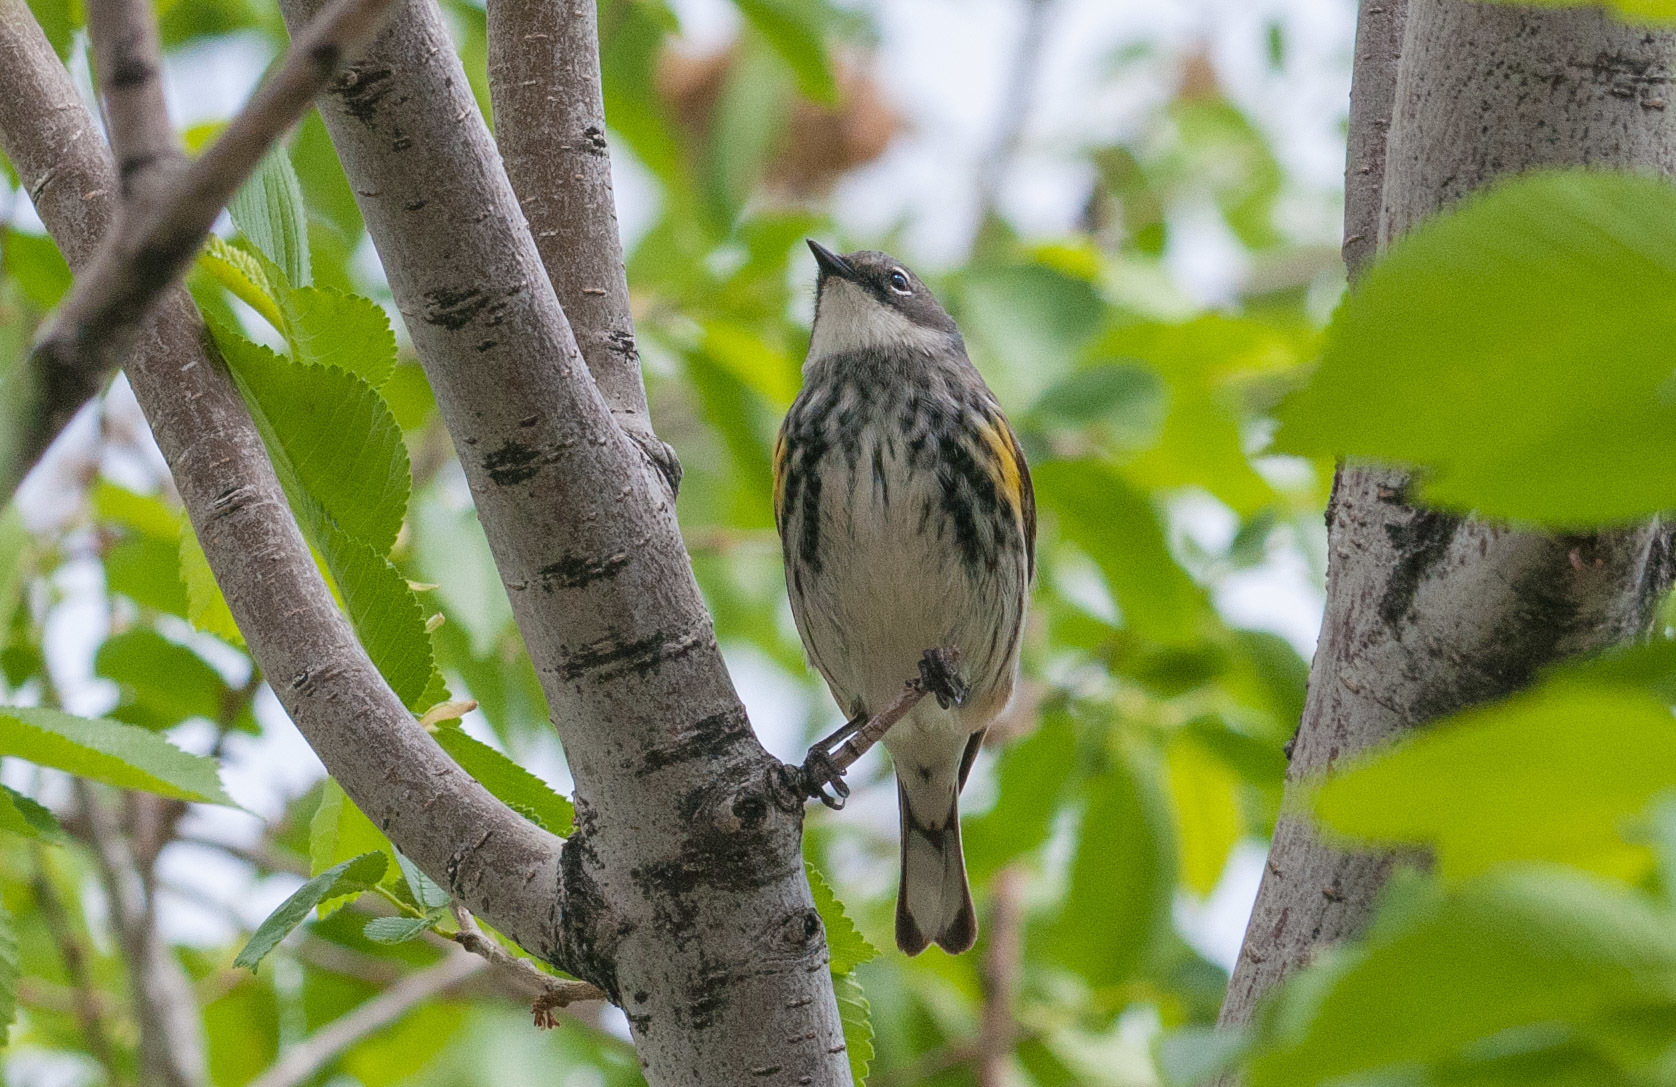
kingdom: Animalia
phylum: Chordata
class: Aves
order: Passeriformes
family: Parulidae
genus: Setophaga
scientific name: Setophaga coronata
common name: Myrtle warbler
